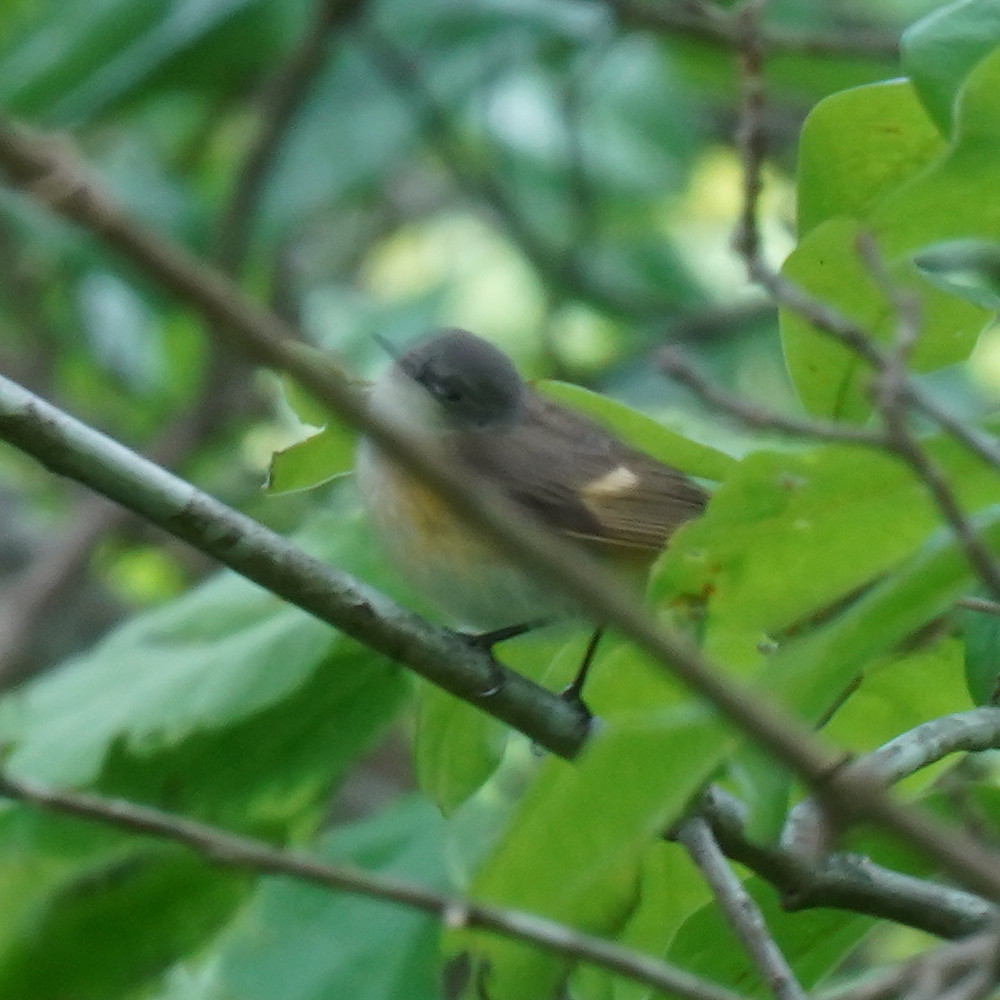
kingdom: Animalia
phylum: Chordata
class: Aves
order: Passeriformes
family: Parulidae
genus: Setophaga
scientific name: Setophaga ruticilla
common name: American redstart
